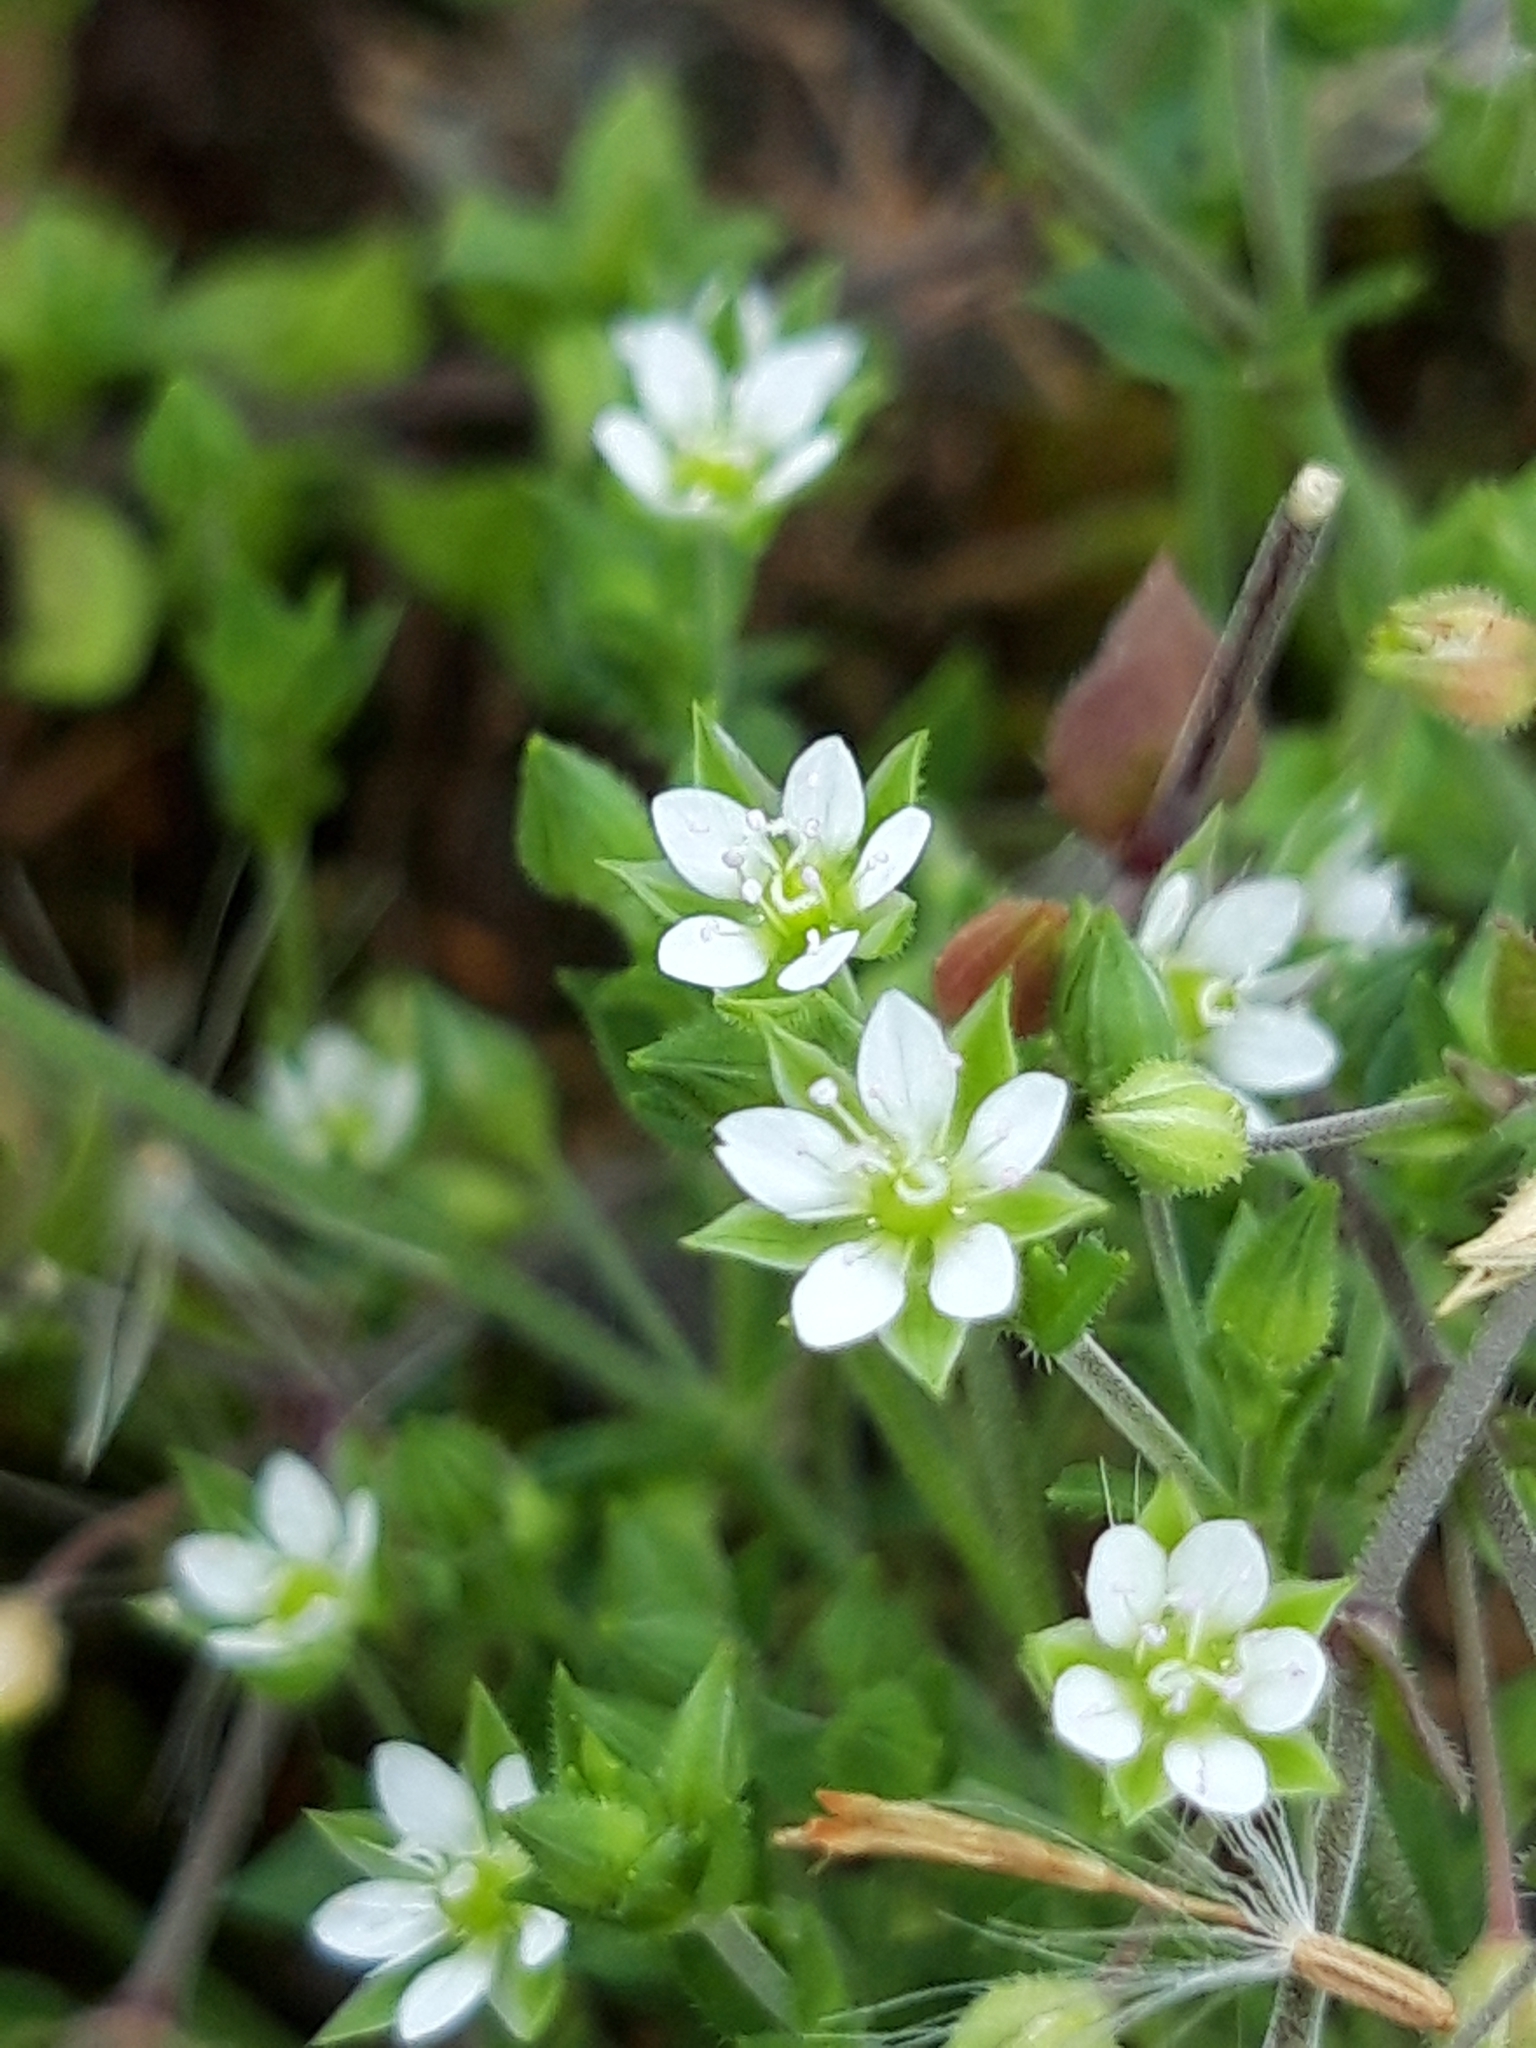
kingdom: Plantae
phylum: Tracheophyta
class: Magnoliopsida
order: Caryophyllales
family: Caryophyllaceae
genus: Arenaria
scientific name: Arenaria serpyllifolia
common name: Thyme-leaved sandwort
